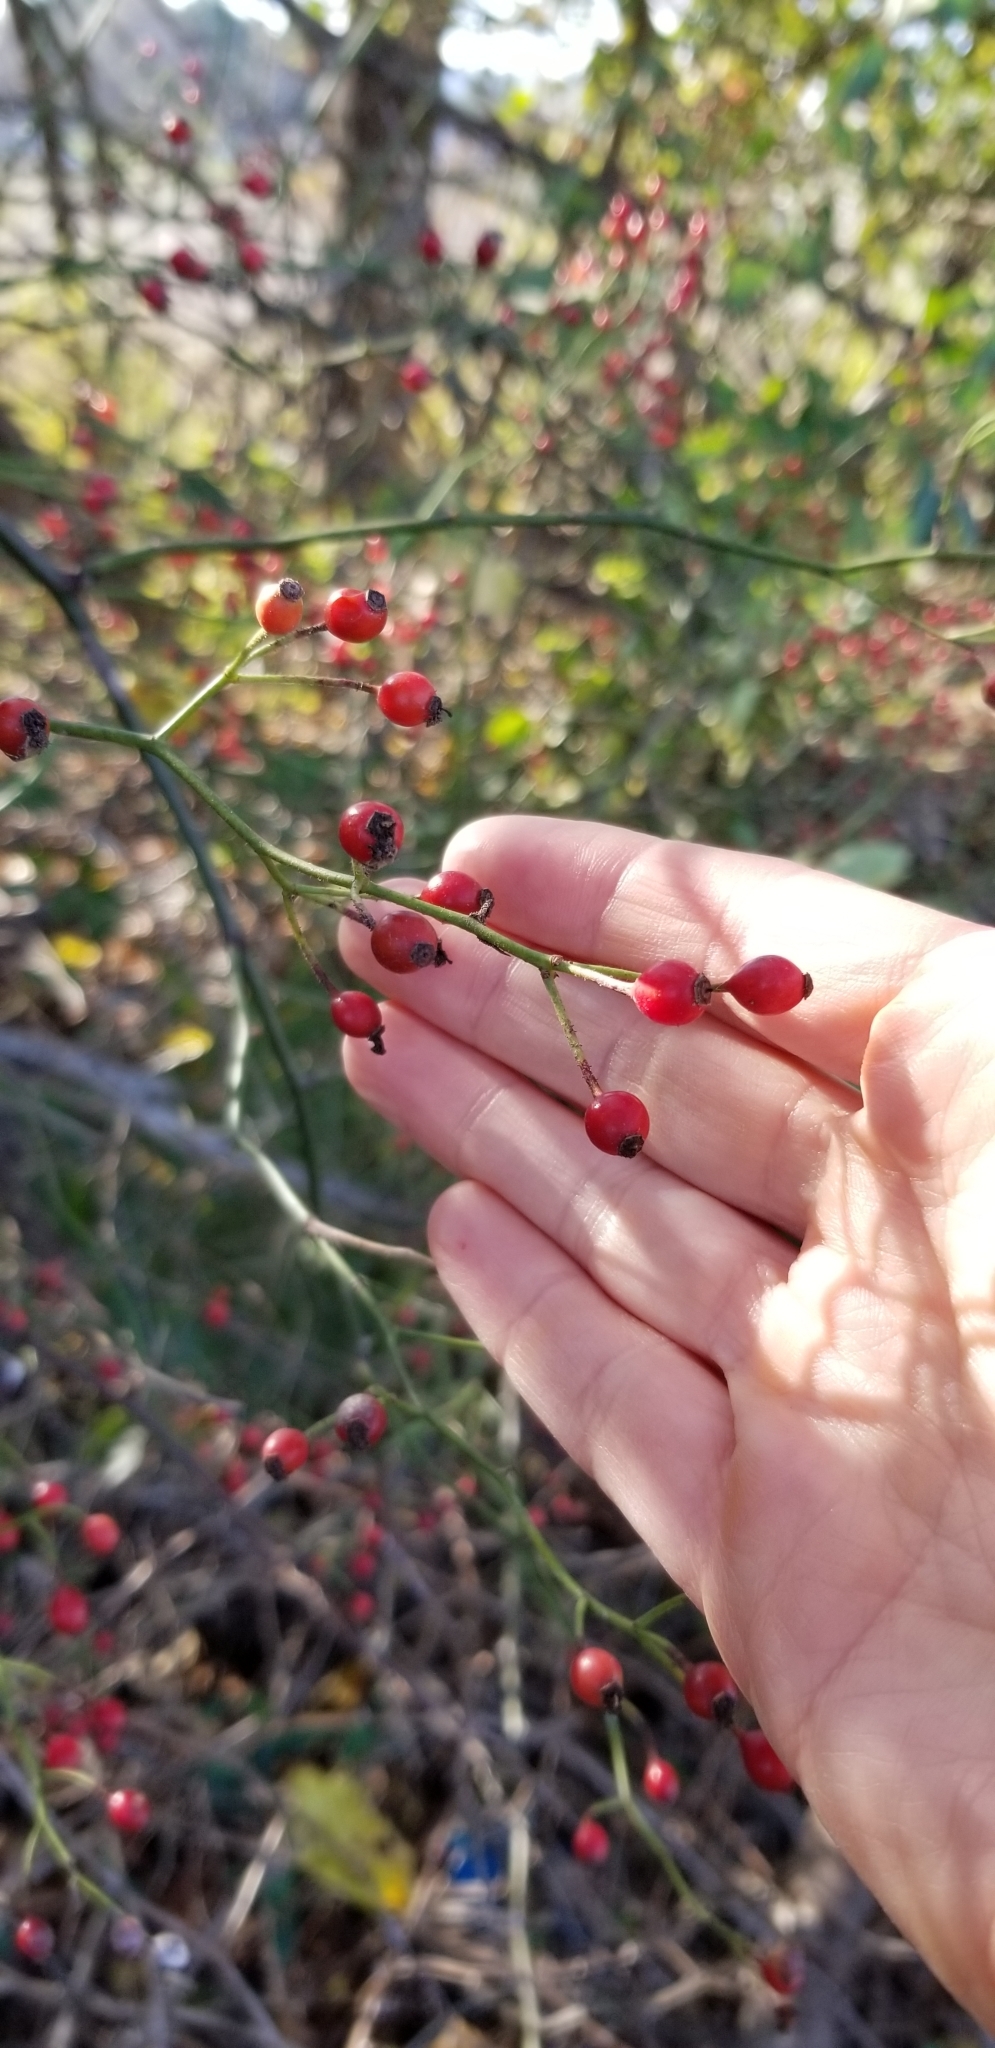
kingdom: Plantae
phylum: Tracheophyta
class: Magnoliopsida
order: Rosales
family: Rosaceae
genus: Rosa
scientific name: Rosa multiflora
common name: Multiflora rose
